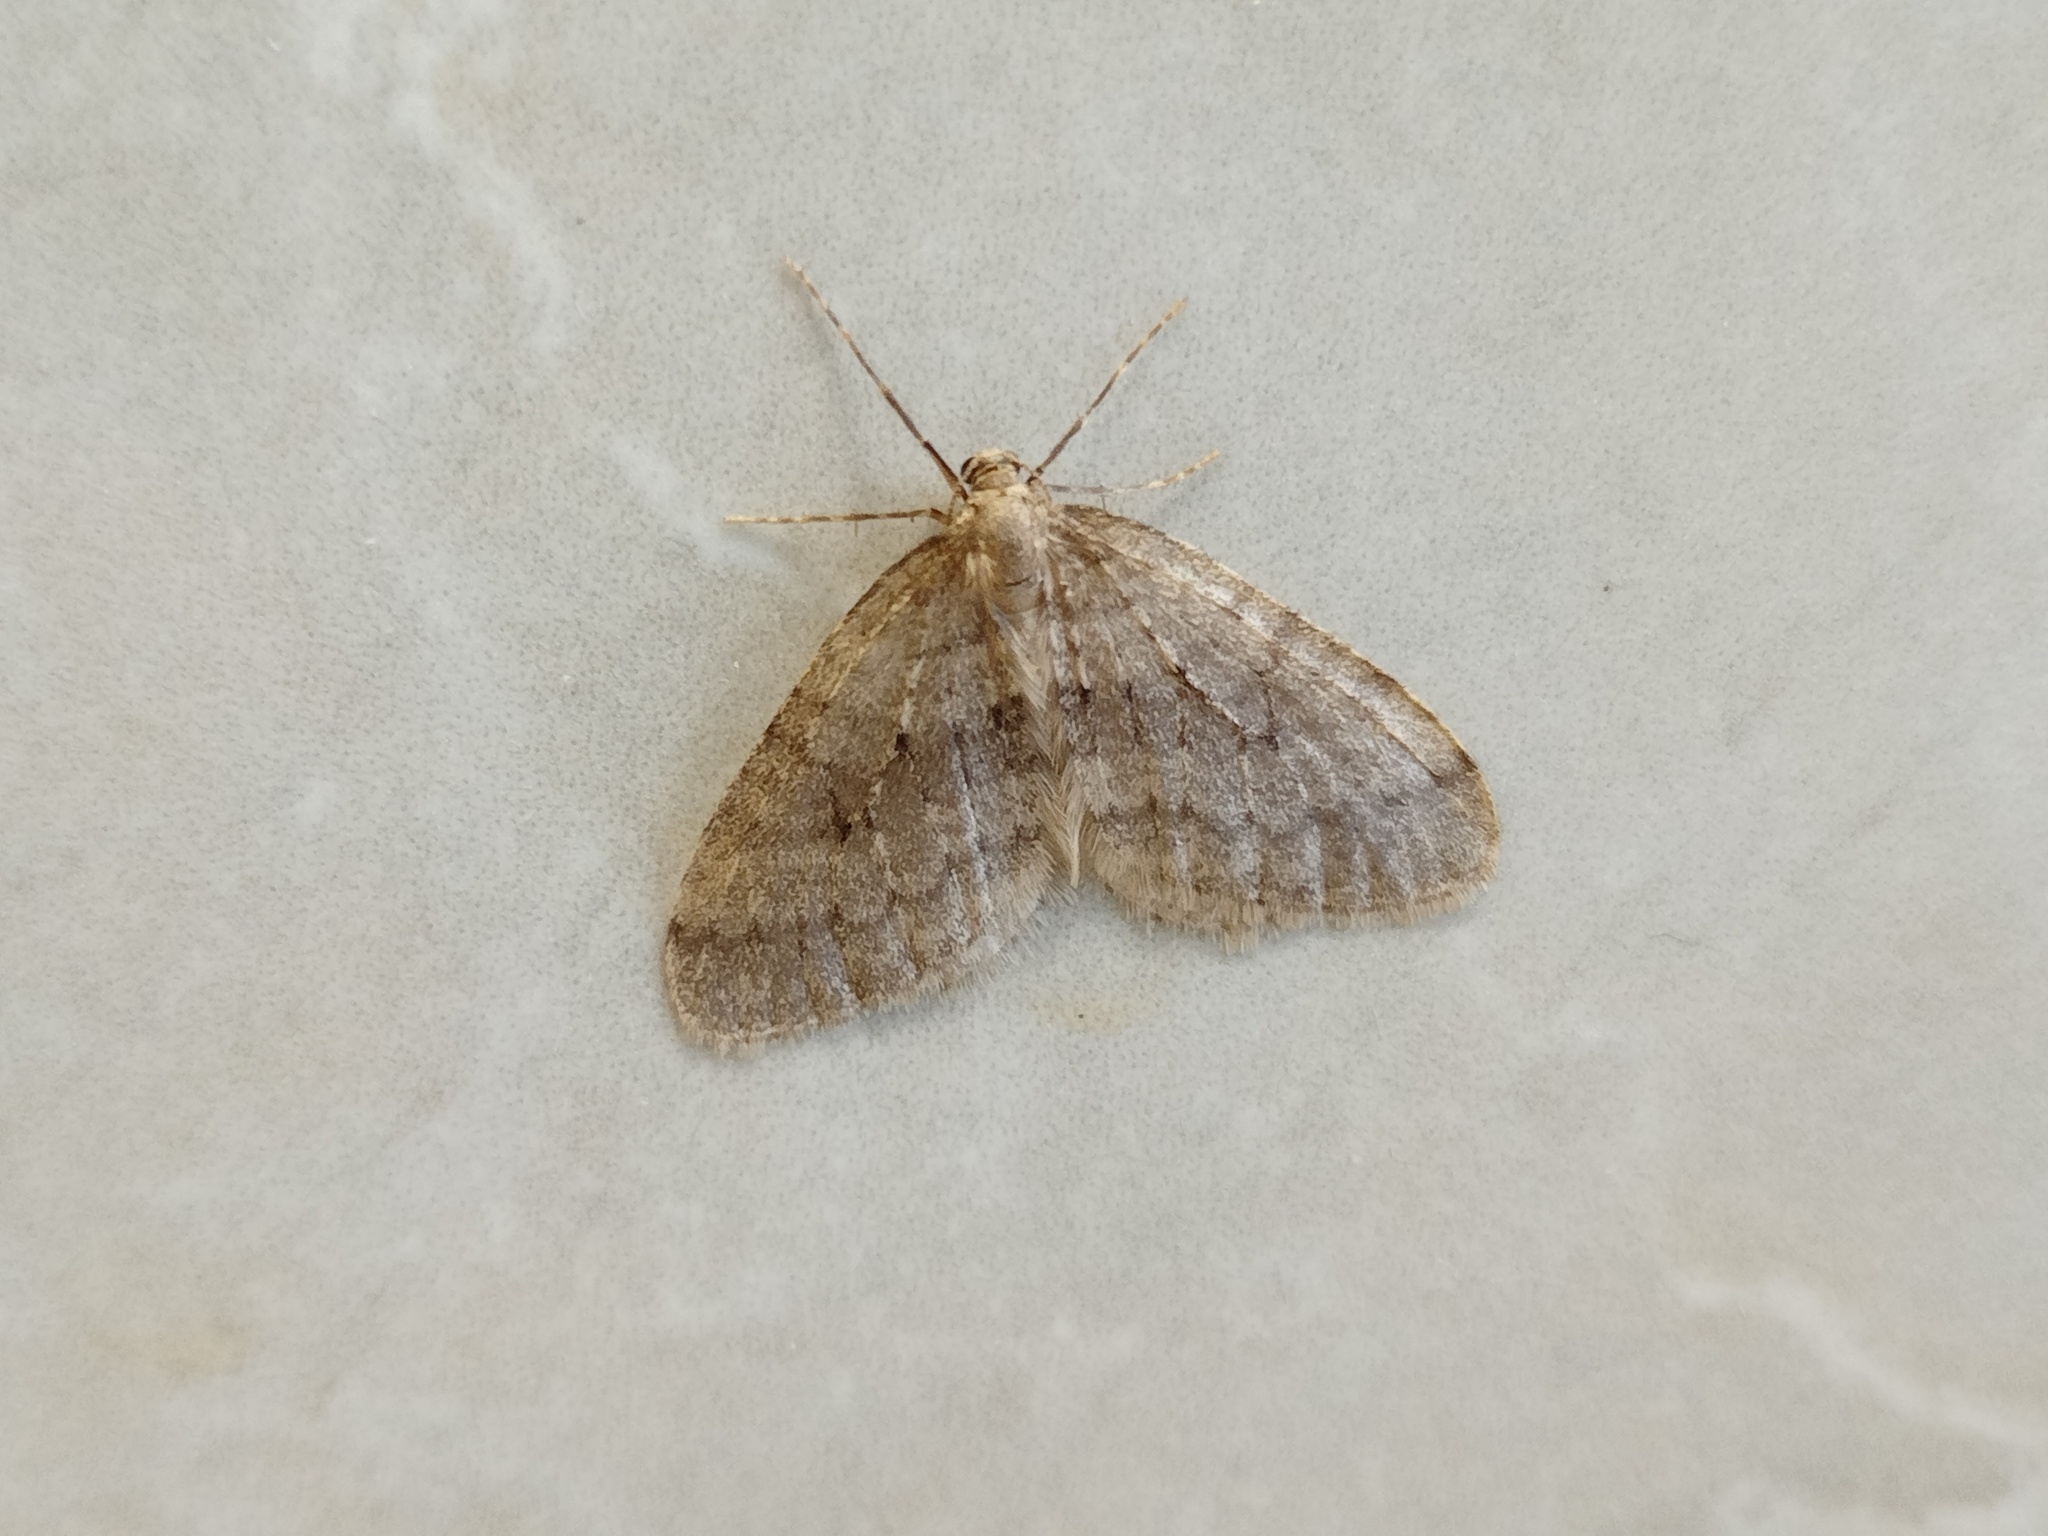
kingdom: Animalia
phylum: Arthropoda
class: Insecta
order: Lepidoptera
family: Geometridae
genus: Operophtera
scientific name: Operophtera brumata
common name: Winter moth
